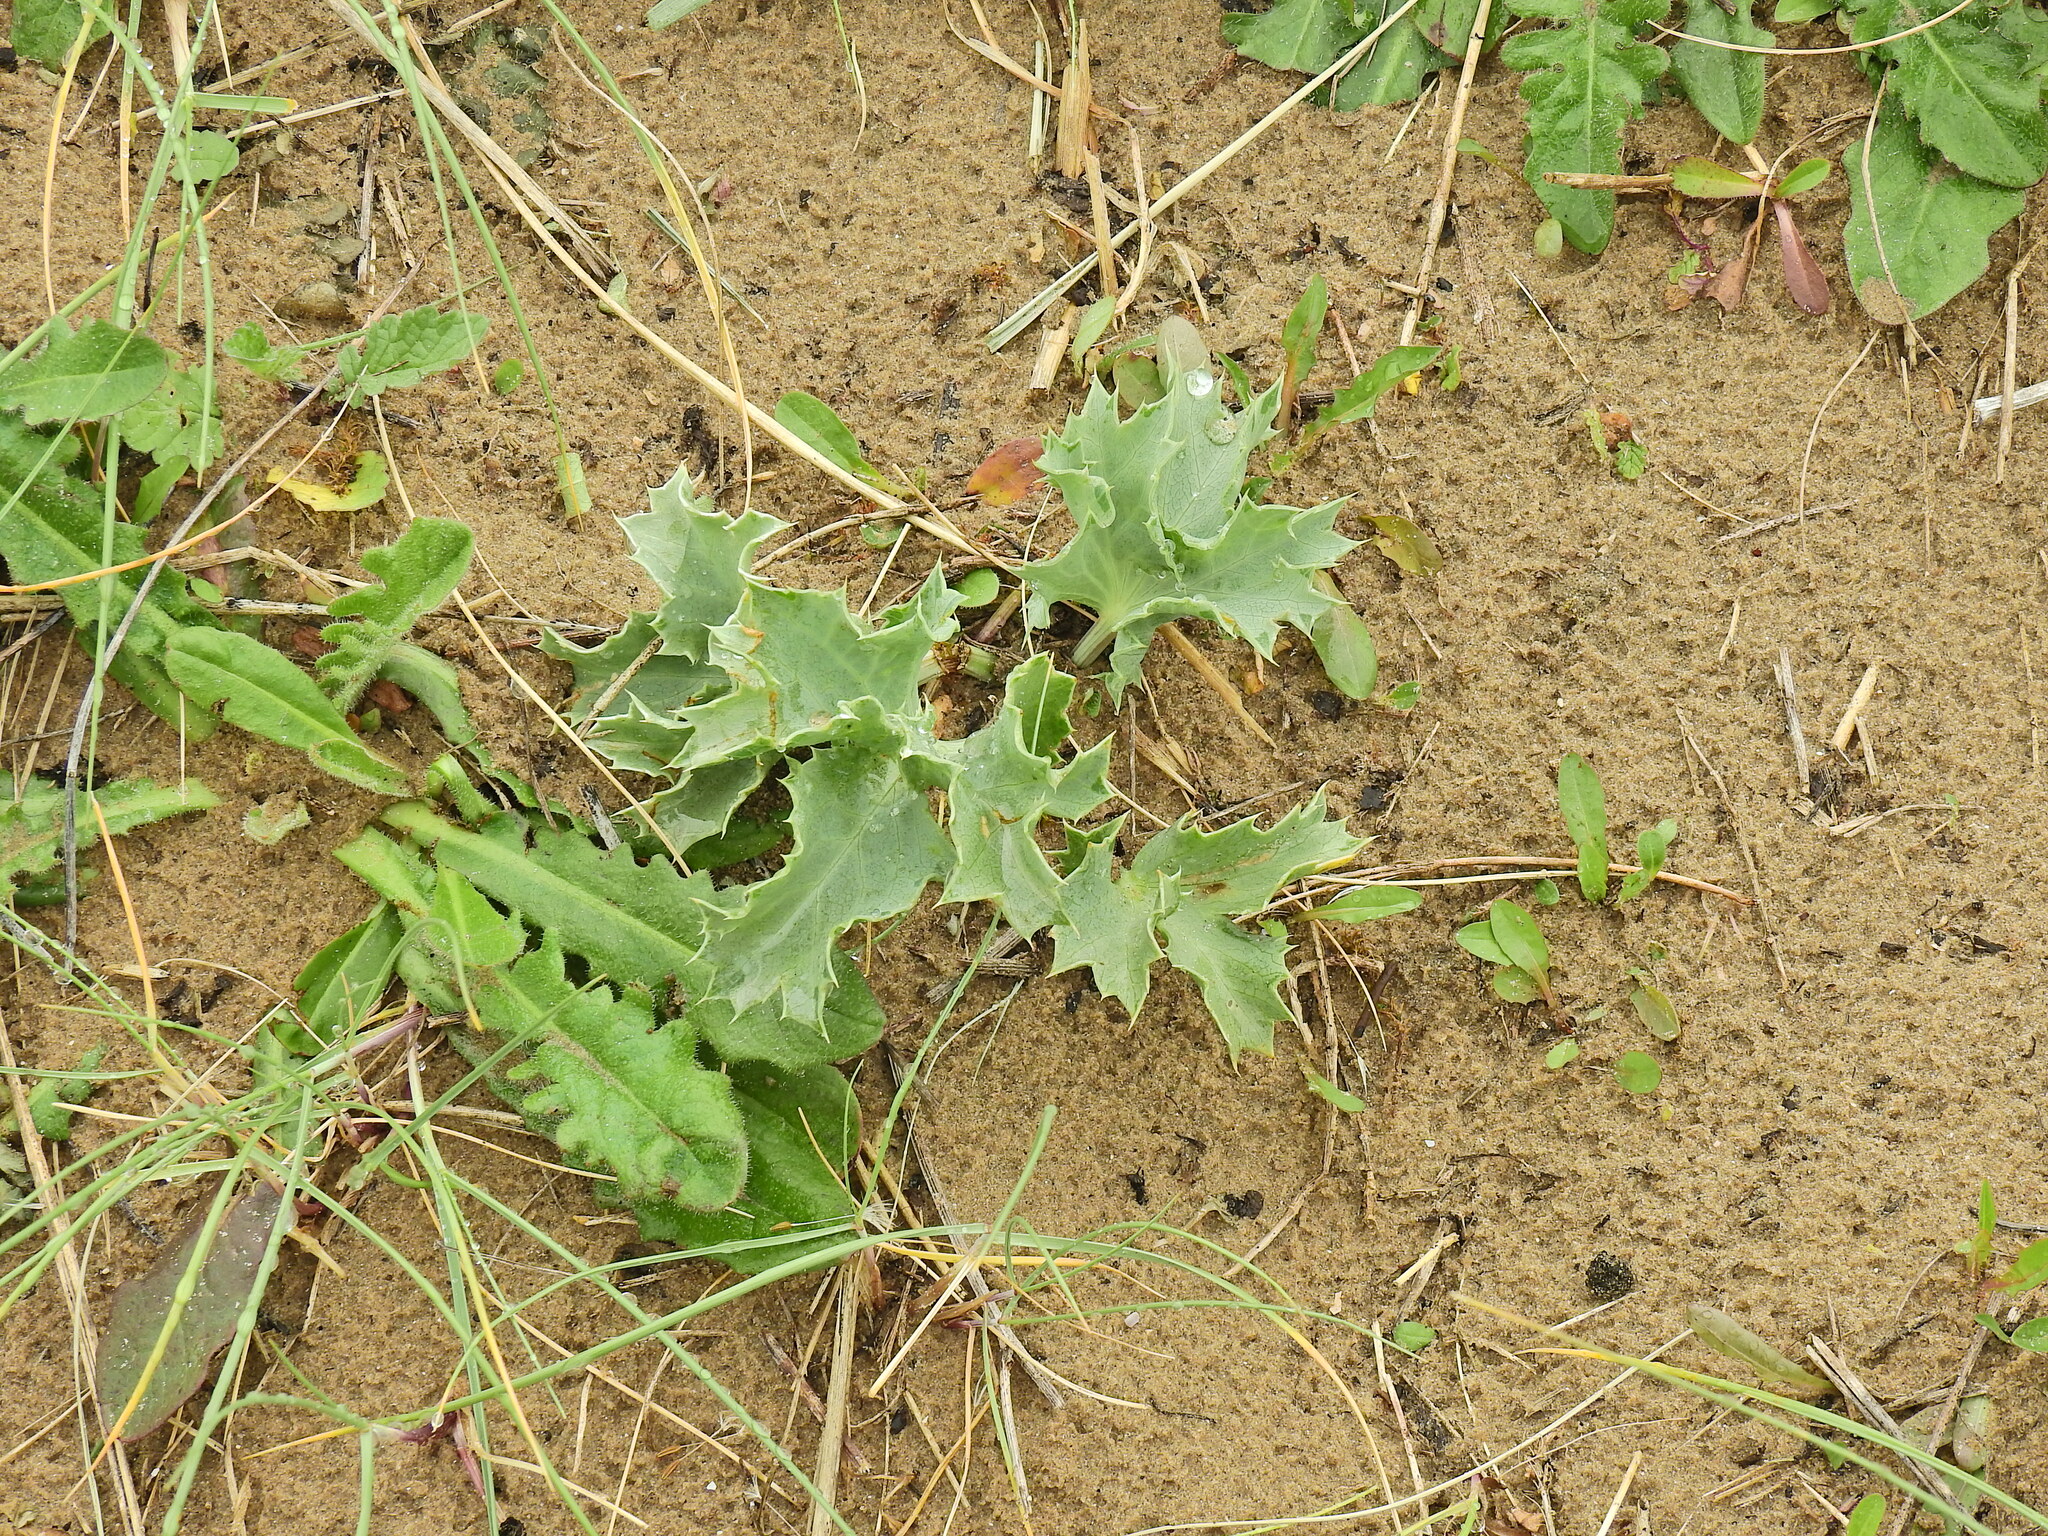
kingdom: Plantae
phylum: Tracheophyta
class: Magnoliopsida
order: Apiales
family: Apiaceae
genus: Eryngium
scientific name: Eryngium maritimum
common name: Sea-holly
